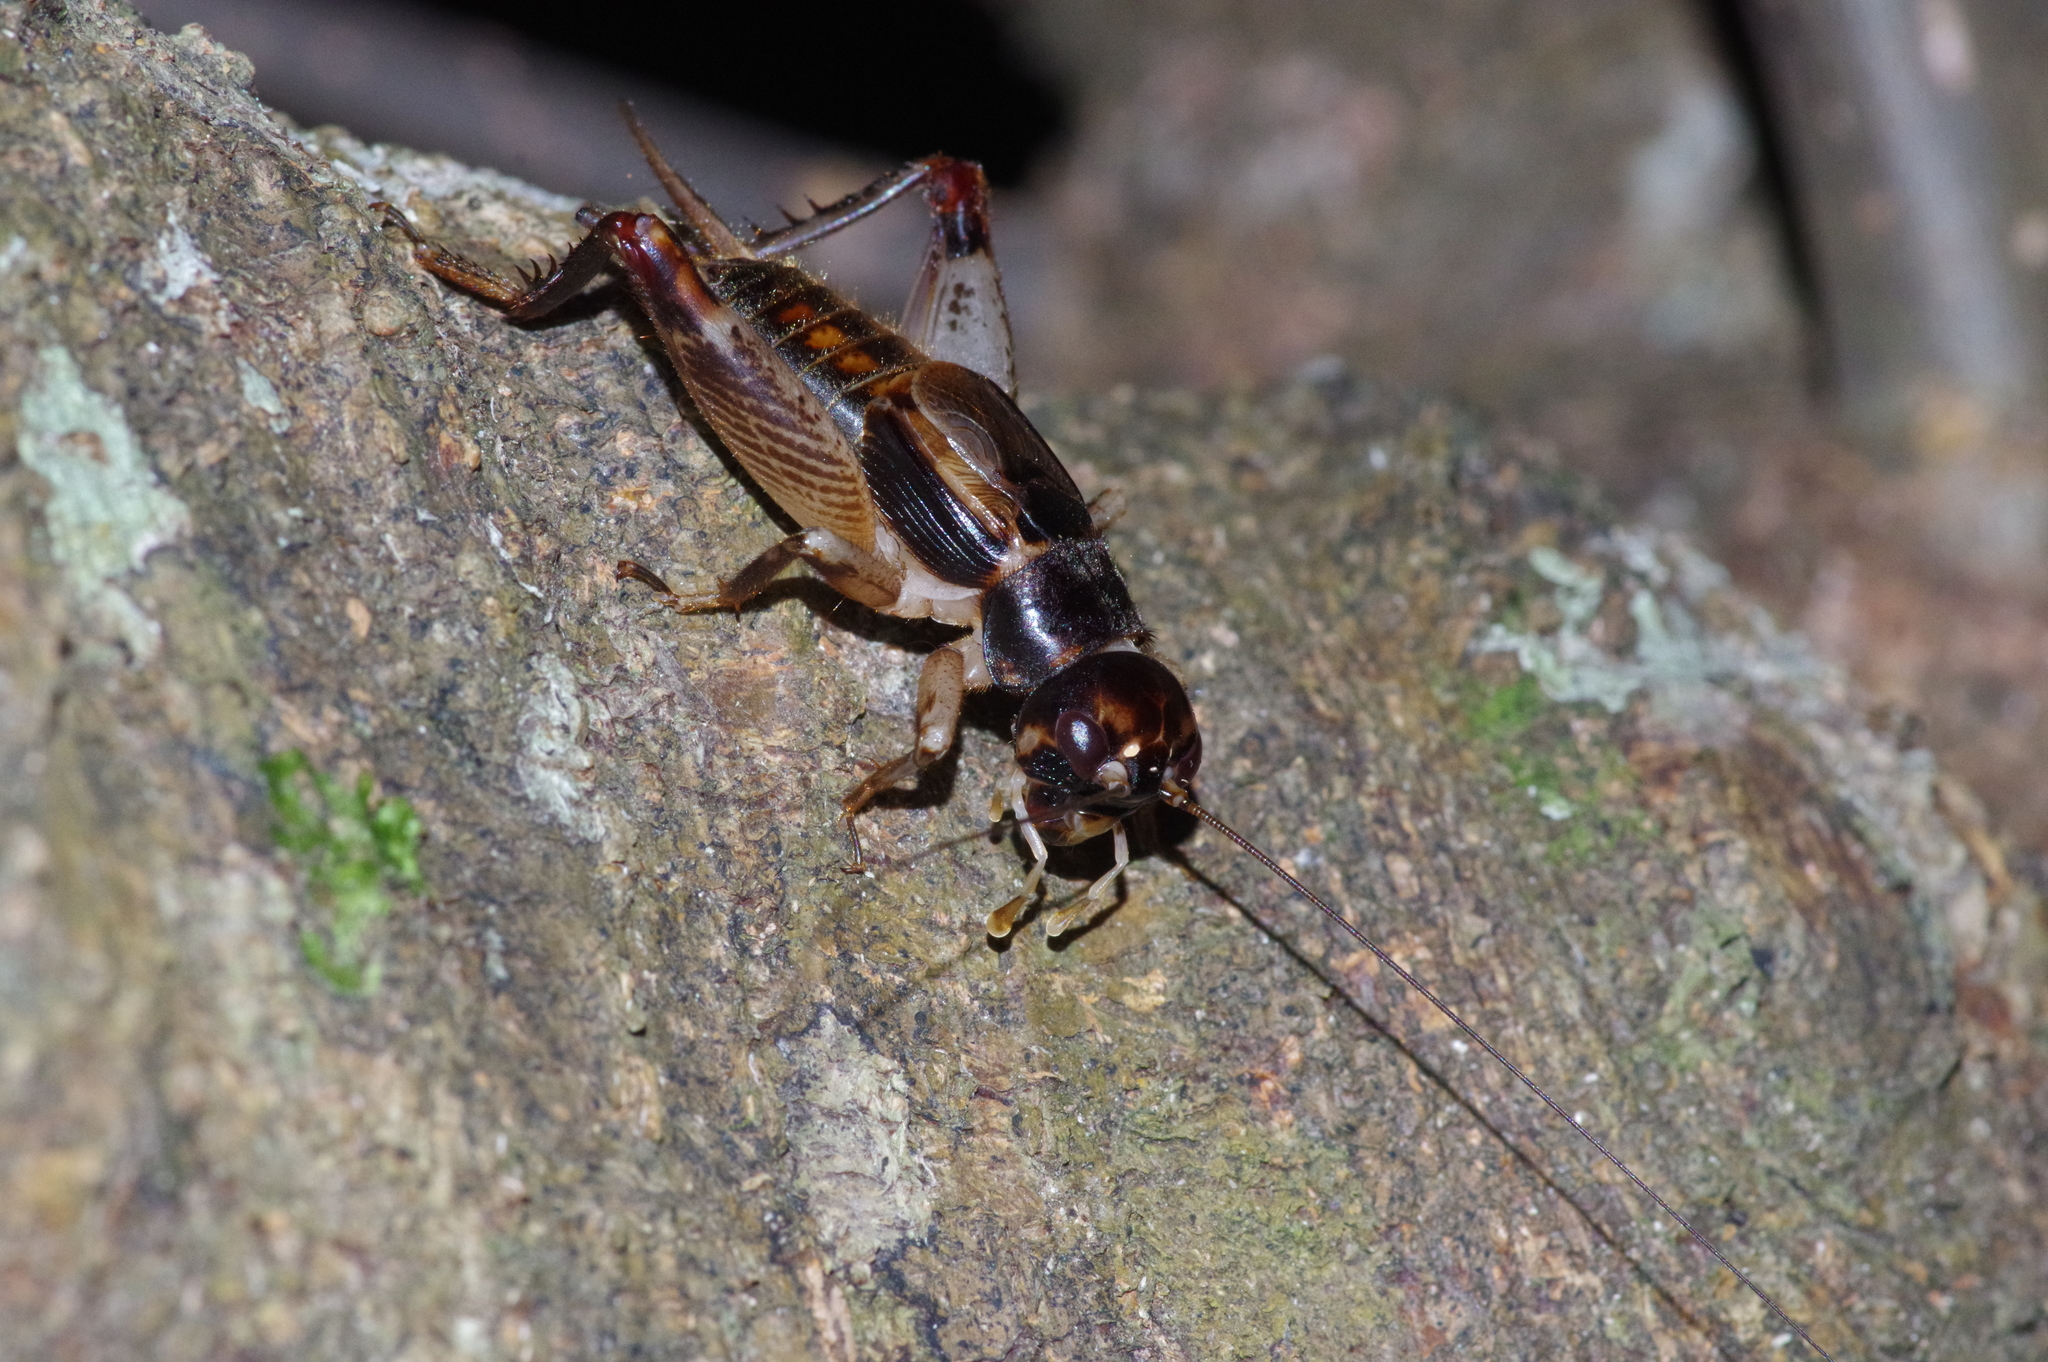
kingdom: Animalia
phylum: Arthropoda
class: Insecta
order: Orthoptera
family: Gryllidae
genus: Duolandrevus
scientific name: Duolandrevus ivani
